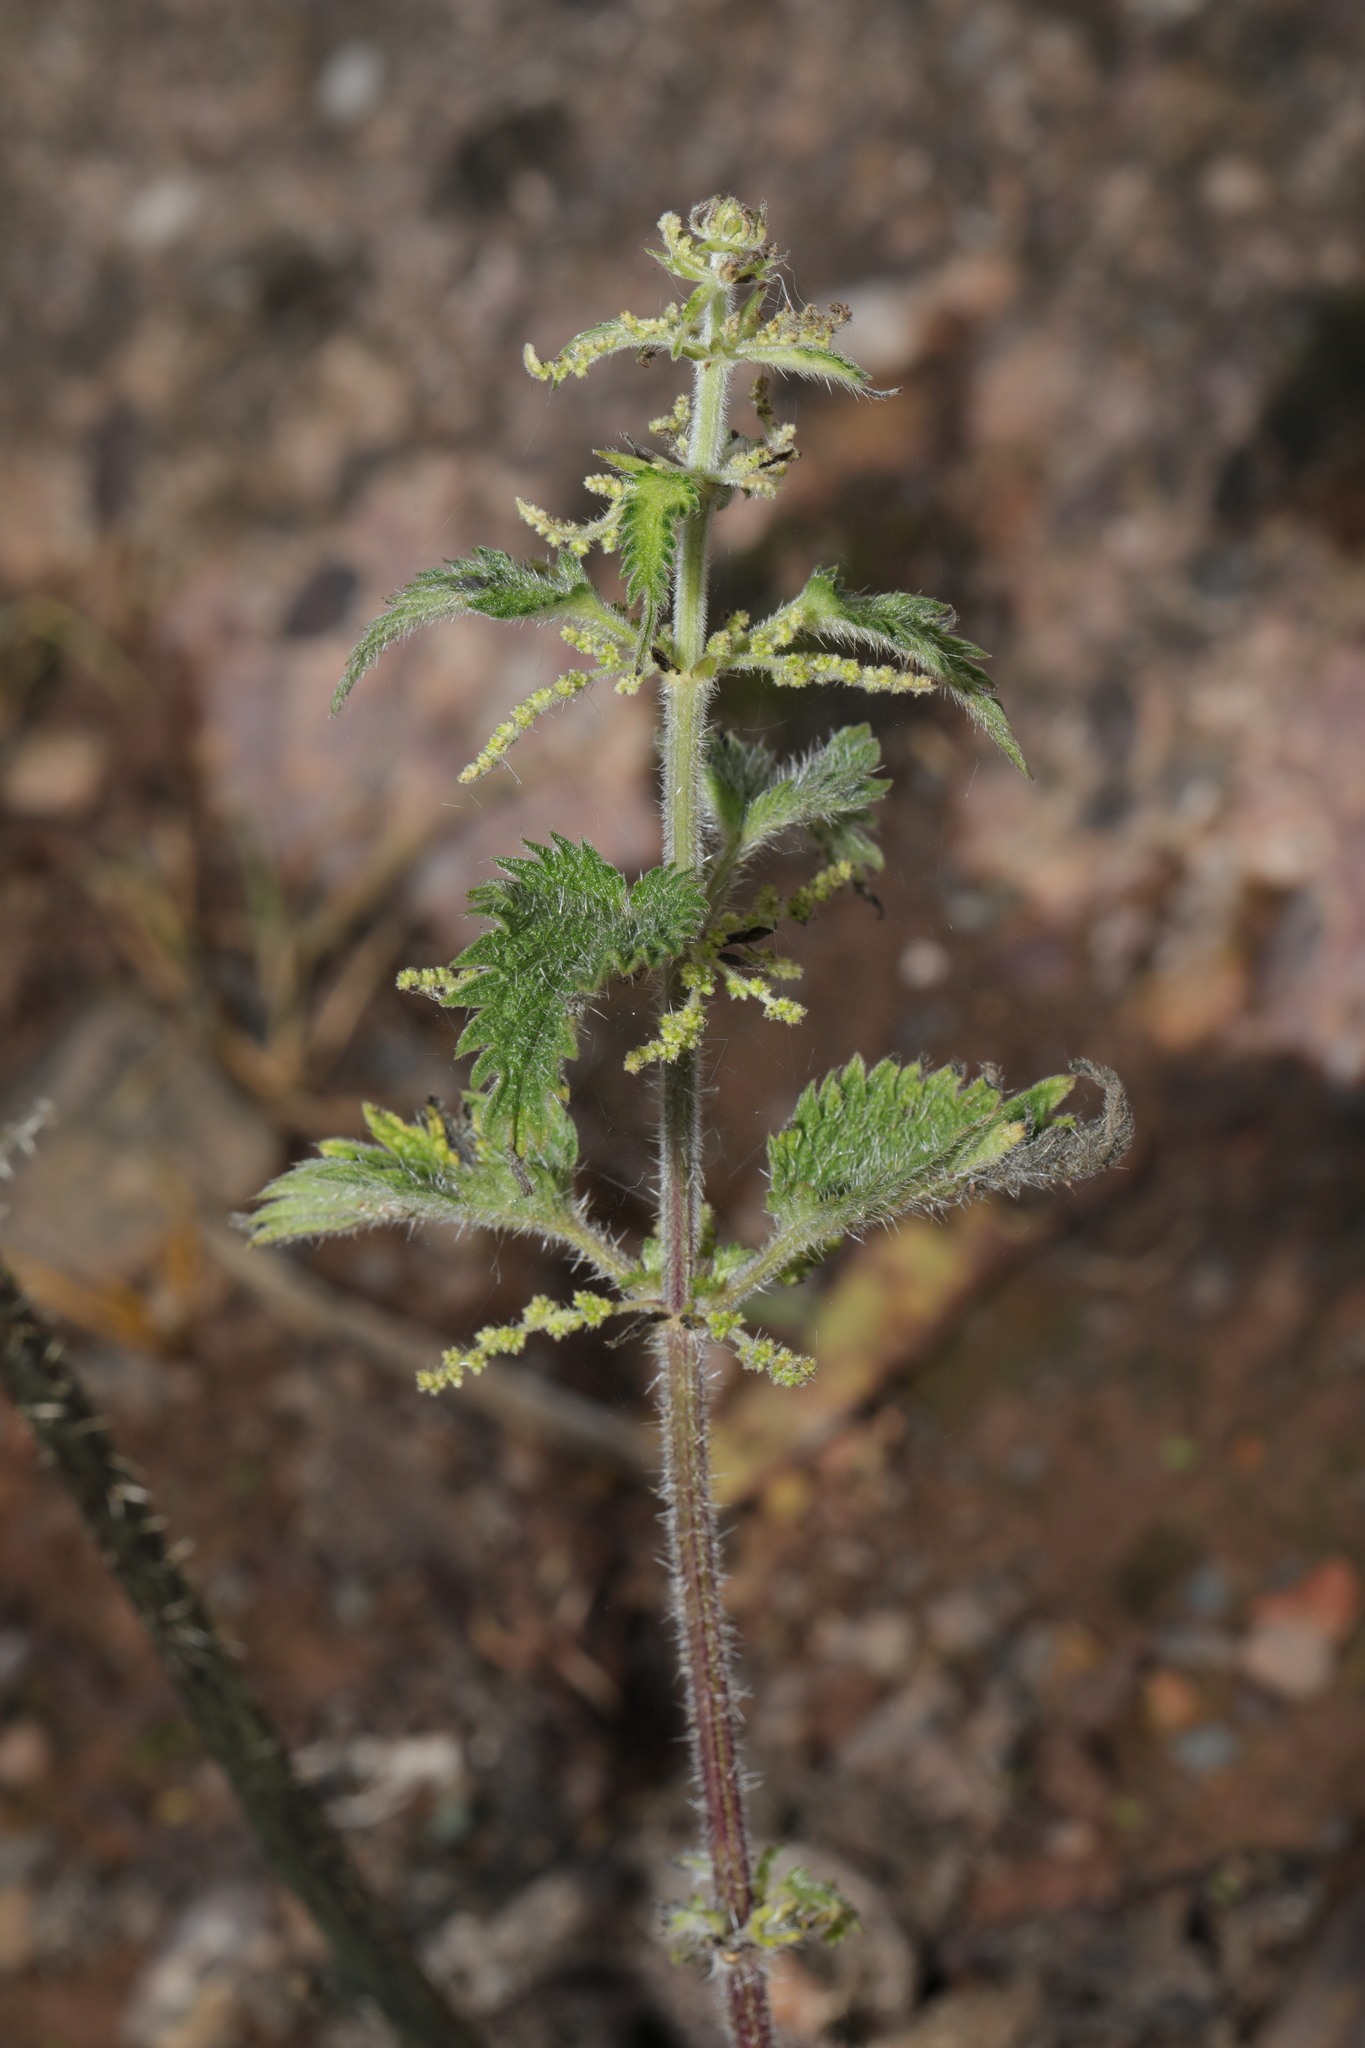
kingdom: Plantae
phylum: Tracheophyta
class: Magnoliopsida
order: Rosales
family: Urticaceae
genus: Urtica
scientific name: Urtica dioica
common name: Common nettle
